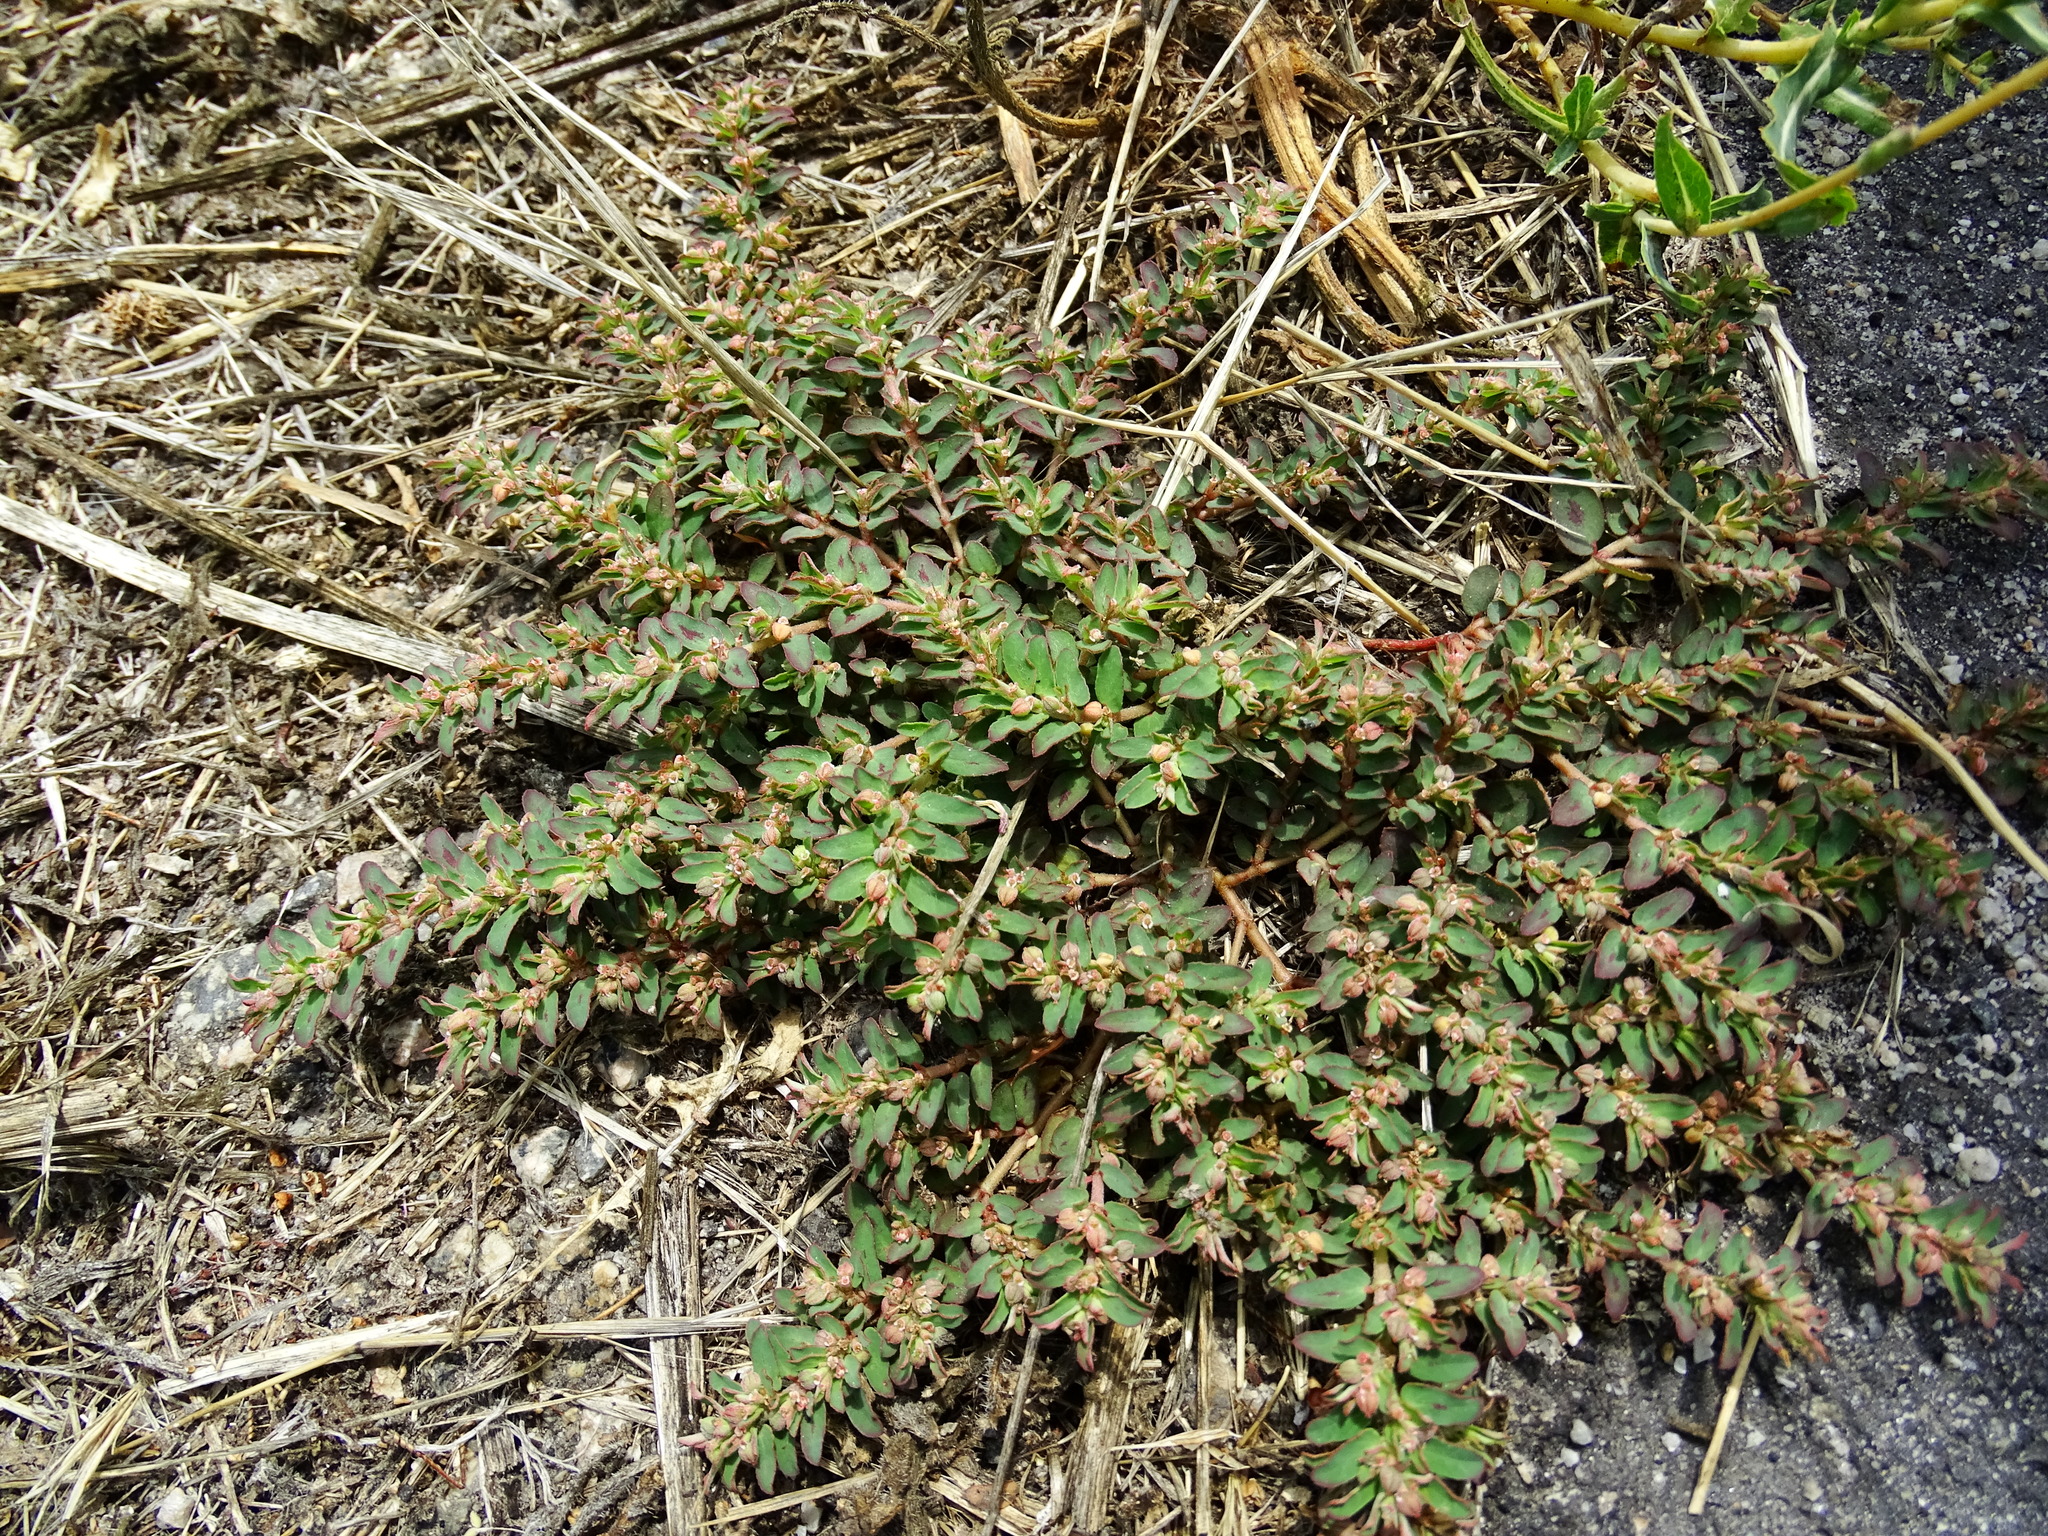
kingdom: Plantae
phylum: Tracheophyta
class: Magnoliopsida
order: Malpighiales
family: Euphorbiaceae
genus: Euphorbia
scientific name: Euphorbia maculata
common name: Spotted spurge
